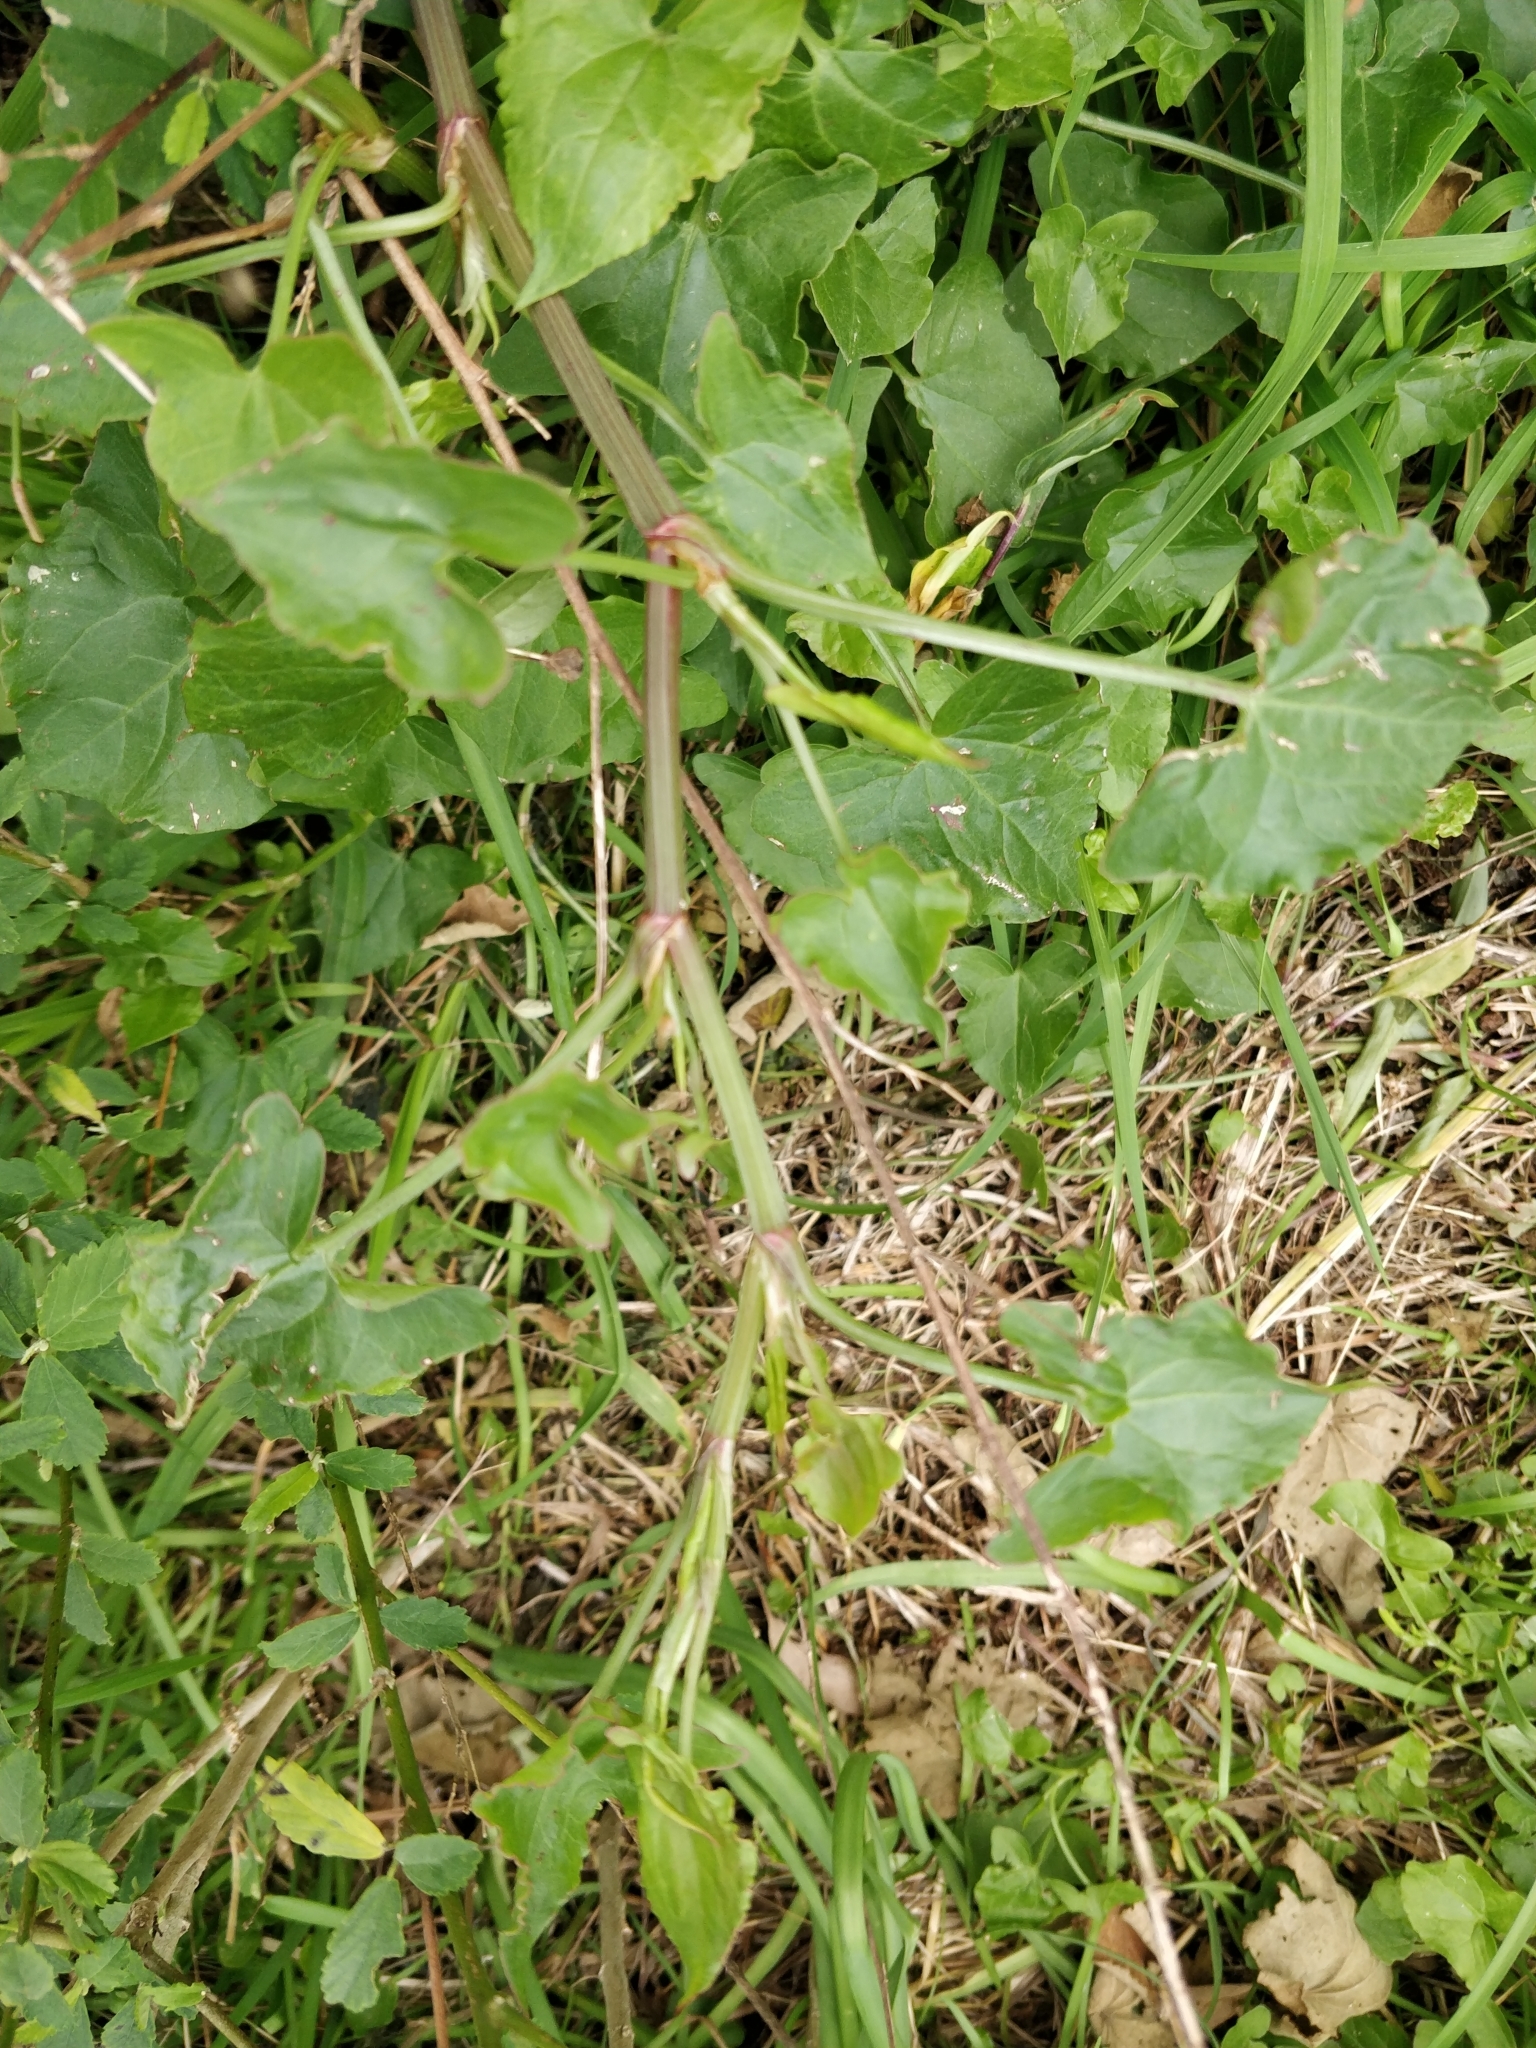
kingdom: Plantae
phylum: Tracheophyta
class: Magnoliopsida
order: Caryophyllales
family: Polygonaceae
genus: Rumex
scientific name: Rumex sagittatus
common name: Climbing dock
